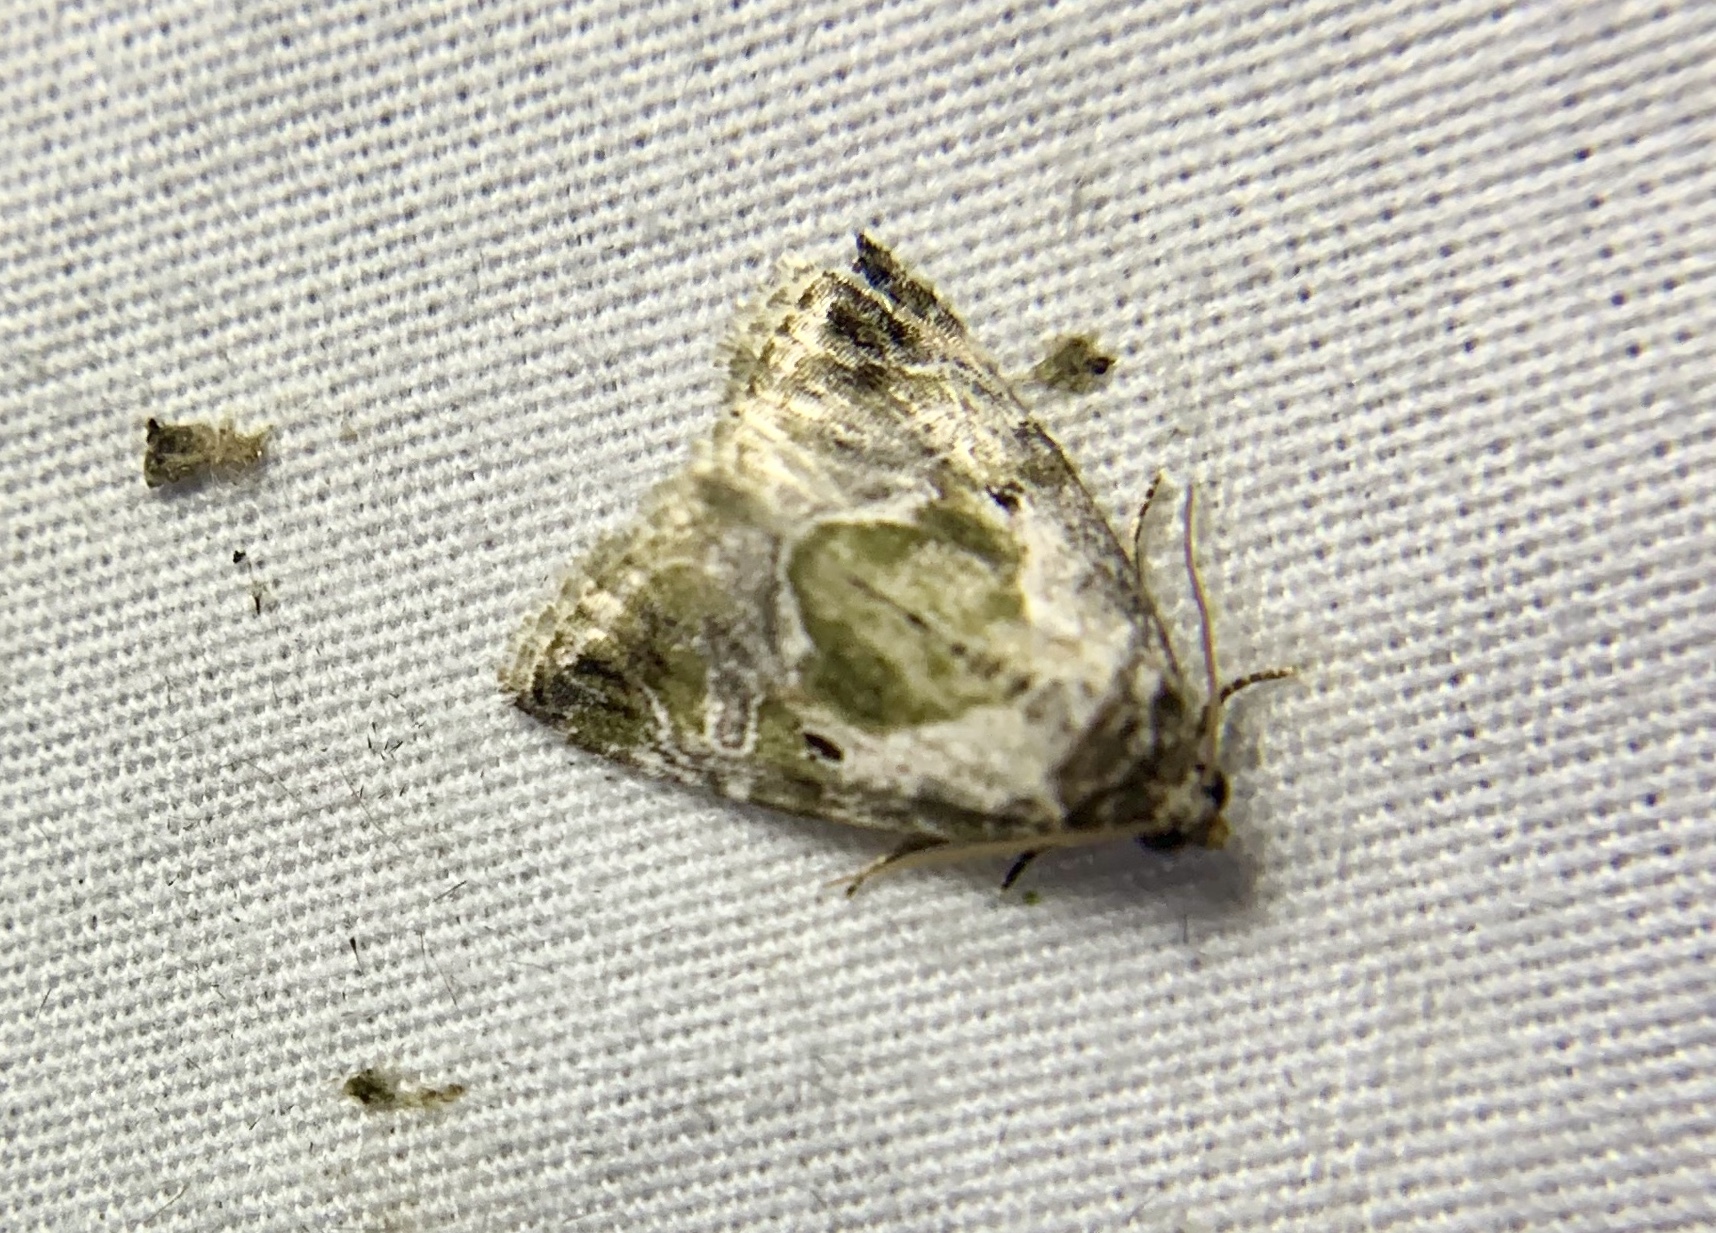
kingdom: Animalia
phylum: Arthropoda
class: Insecta
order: Lepidoptera
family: Noctuidae
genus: Maliattha
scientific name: Maliattha synochitis
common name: Black-dotted glyph
